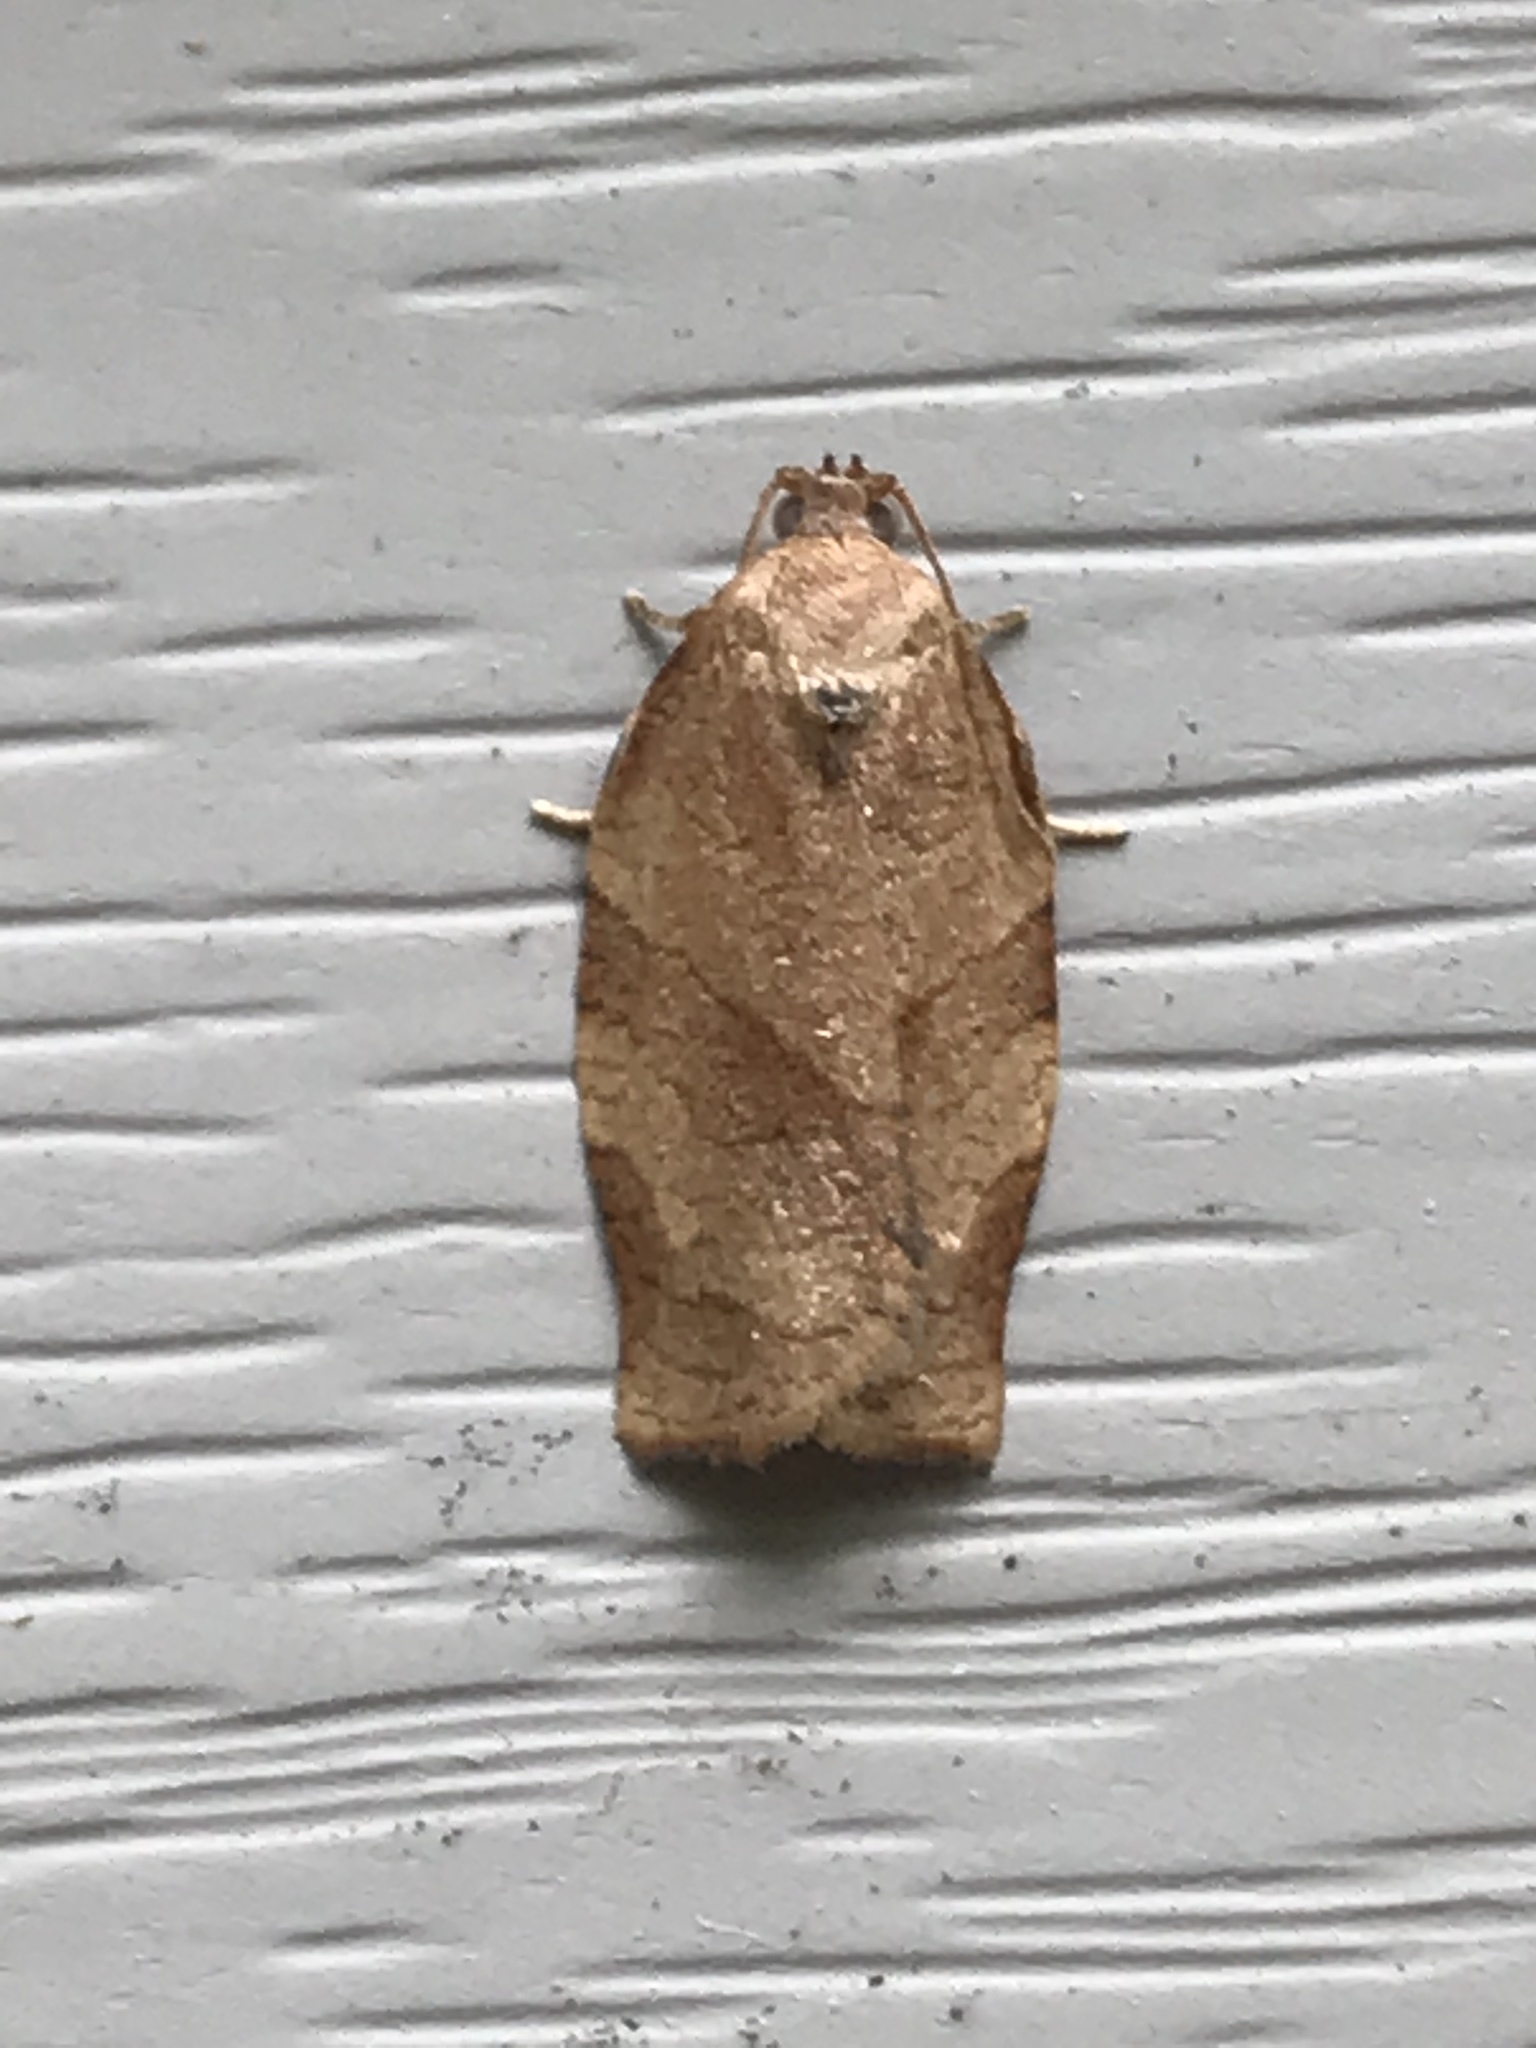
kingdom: Animalia
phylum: Arthropoda
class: Insecta
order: Lepidoptera
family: Tortricidae
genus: Choristoneura
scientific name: Choristoneura rosaceana
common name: Oblique-banded leafroller moth
